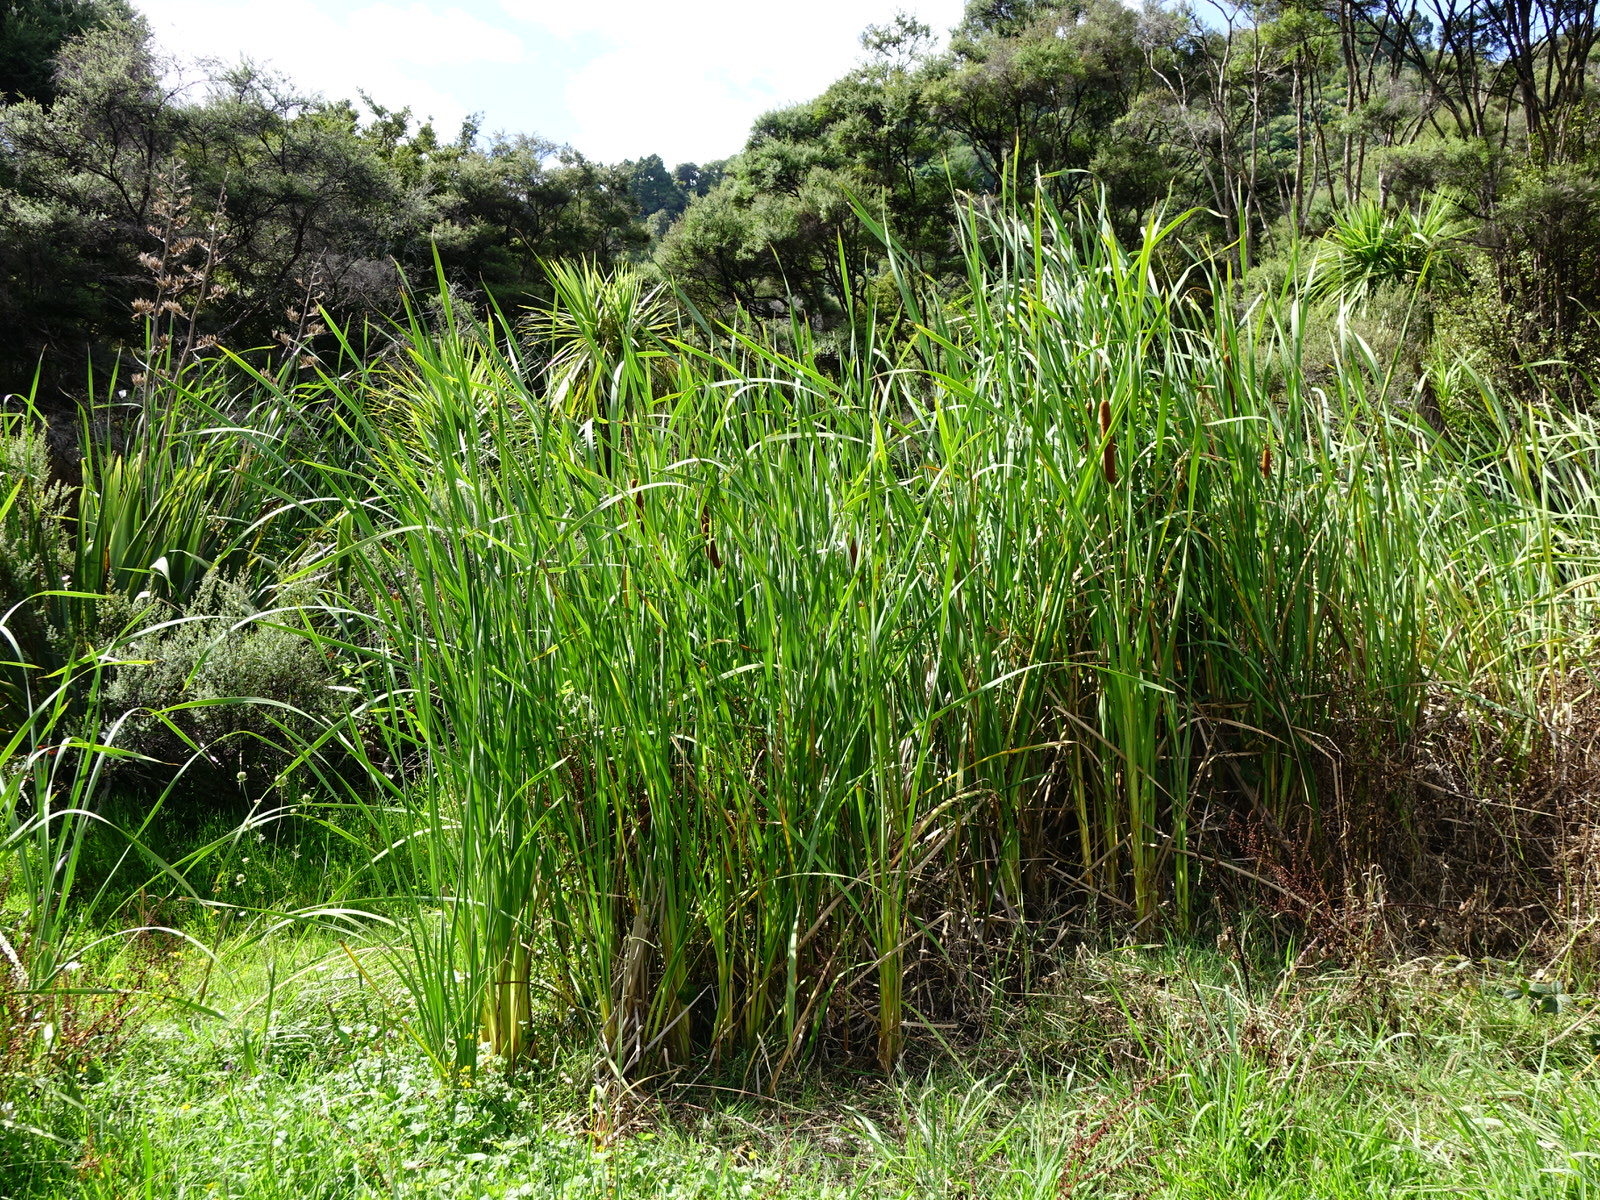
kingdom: Plantae
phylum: Tracheophyta
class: Liliopsida
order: Poales
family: Typhaceae
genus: Typha
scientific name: Typha orientalis
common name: Bullrush
